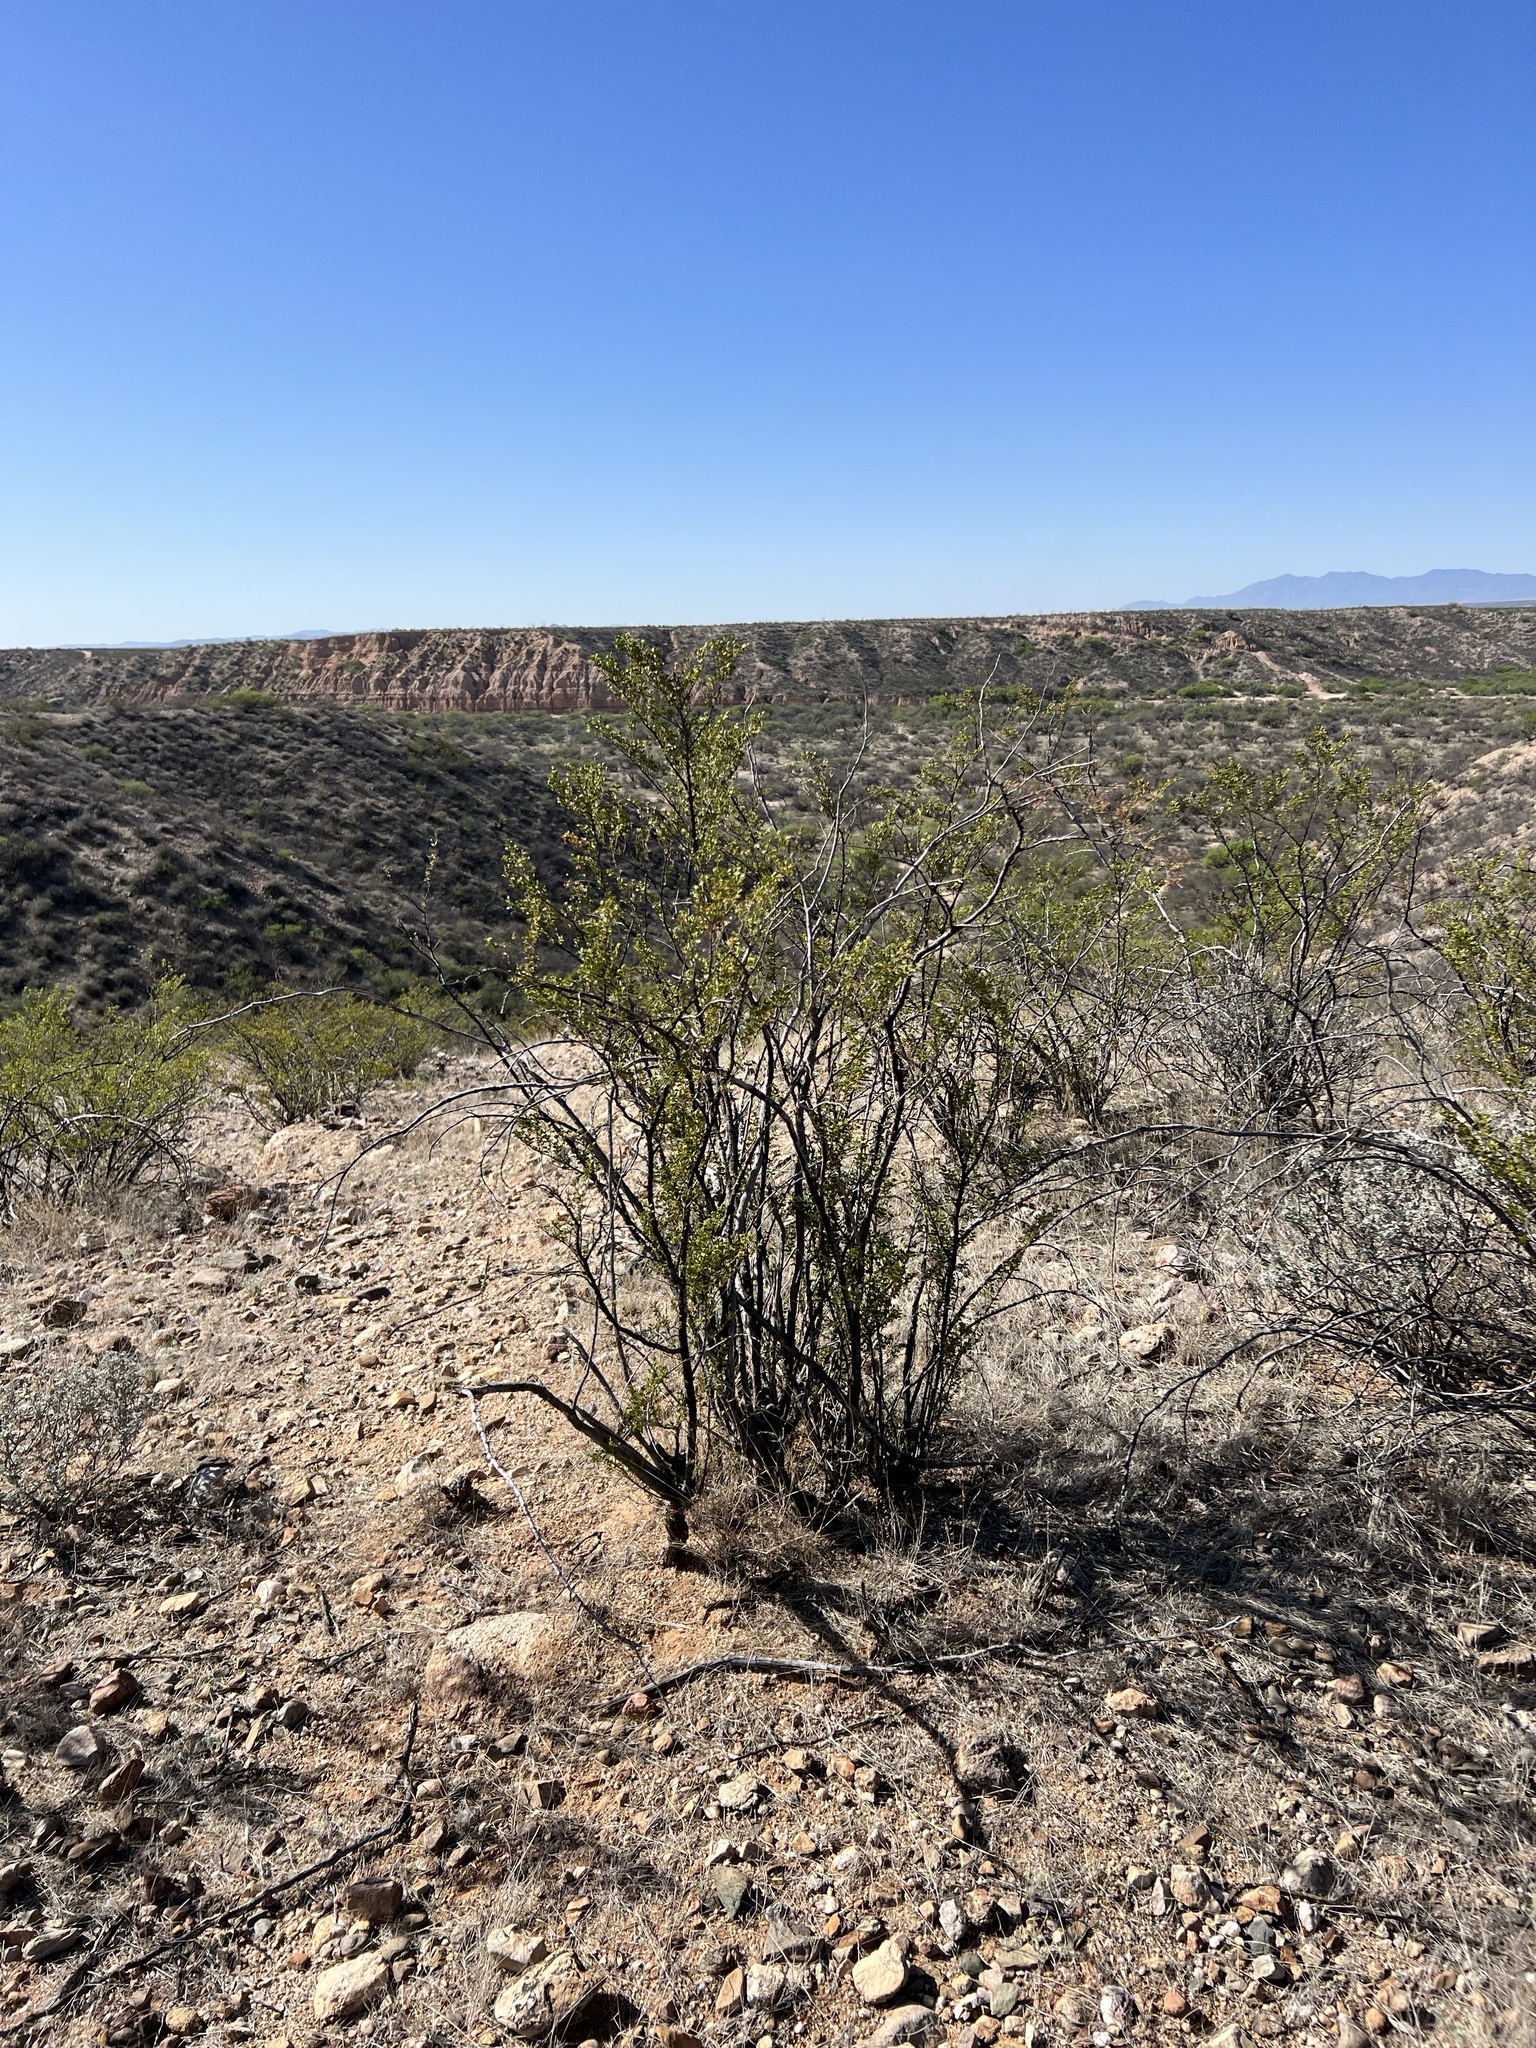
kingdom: Plantae
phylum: Tracheophyta
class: Magnoliopsida
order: Zygophyllales
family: Zygophyllaceae
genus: Larrea
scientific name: Larrea tridentata
